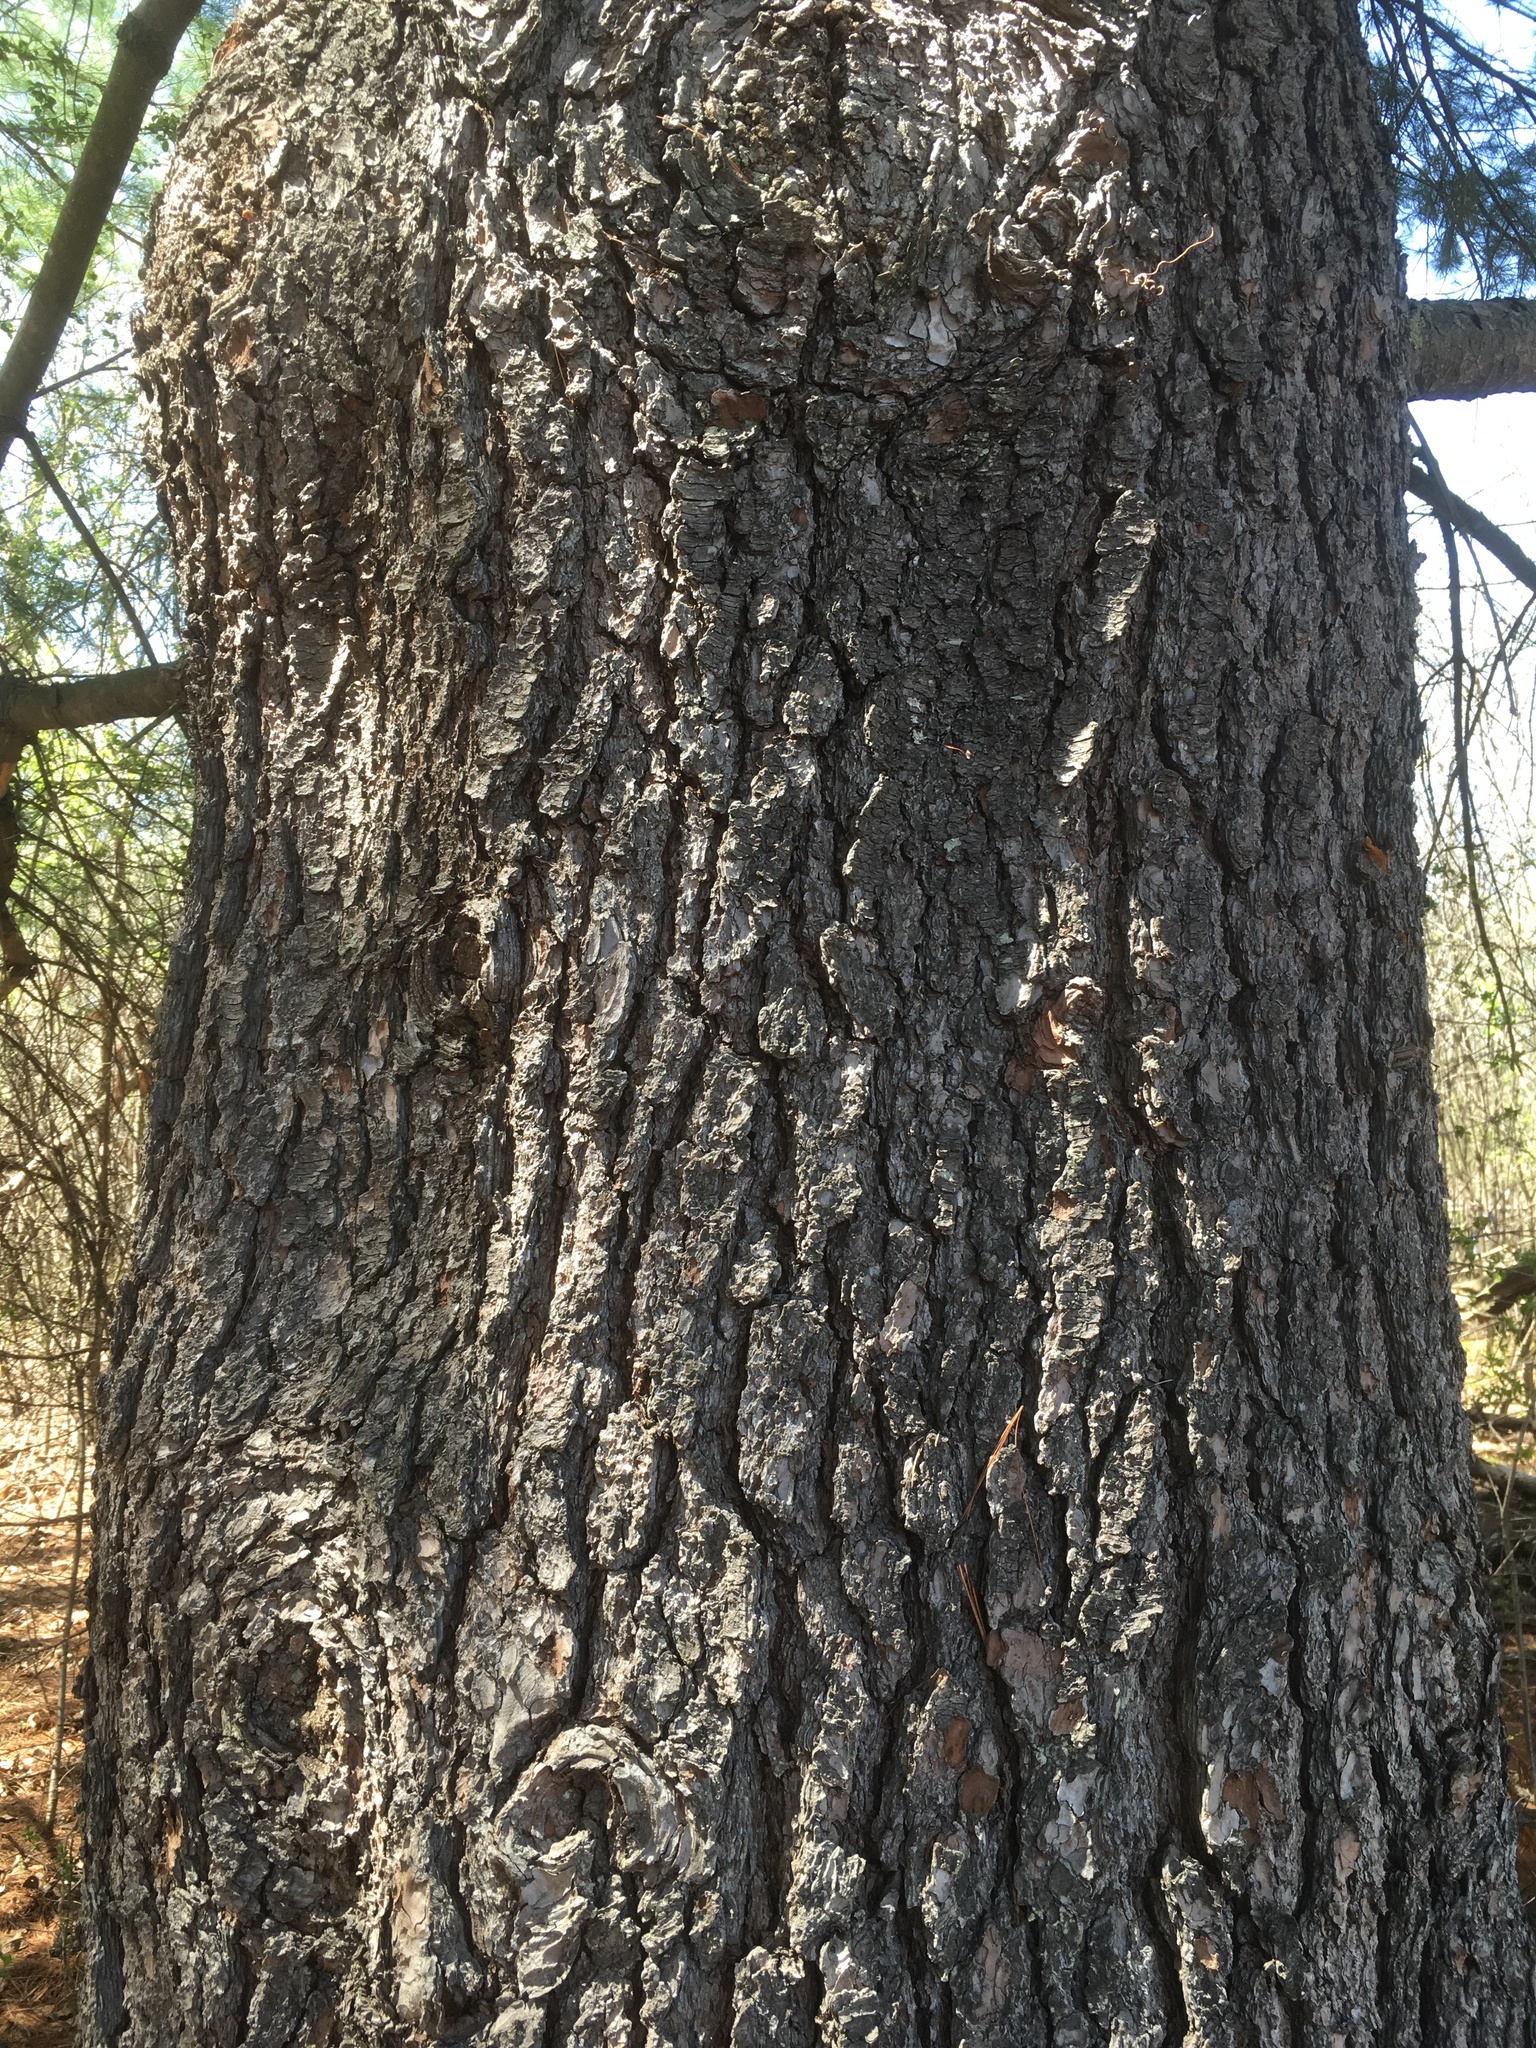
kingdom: Plantae
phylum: Tracheophyta
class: Pinopsida
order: Pinales
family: Pinaceae
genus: Pinus
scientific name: Pinus strobus
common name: Weymouth pine
